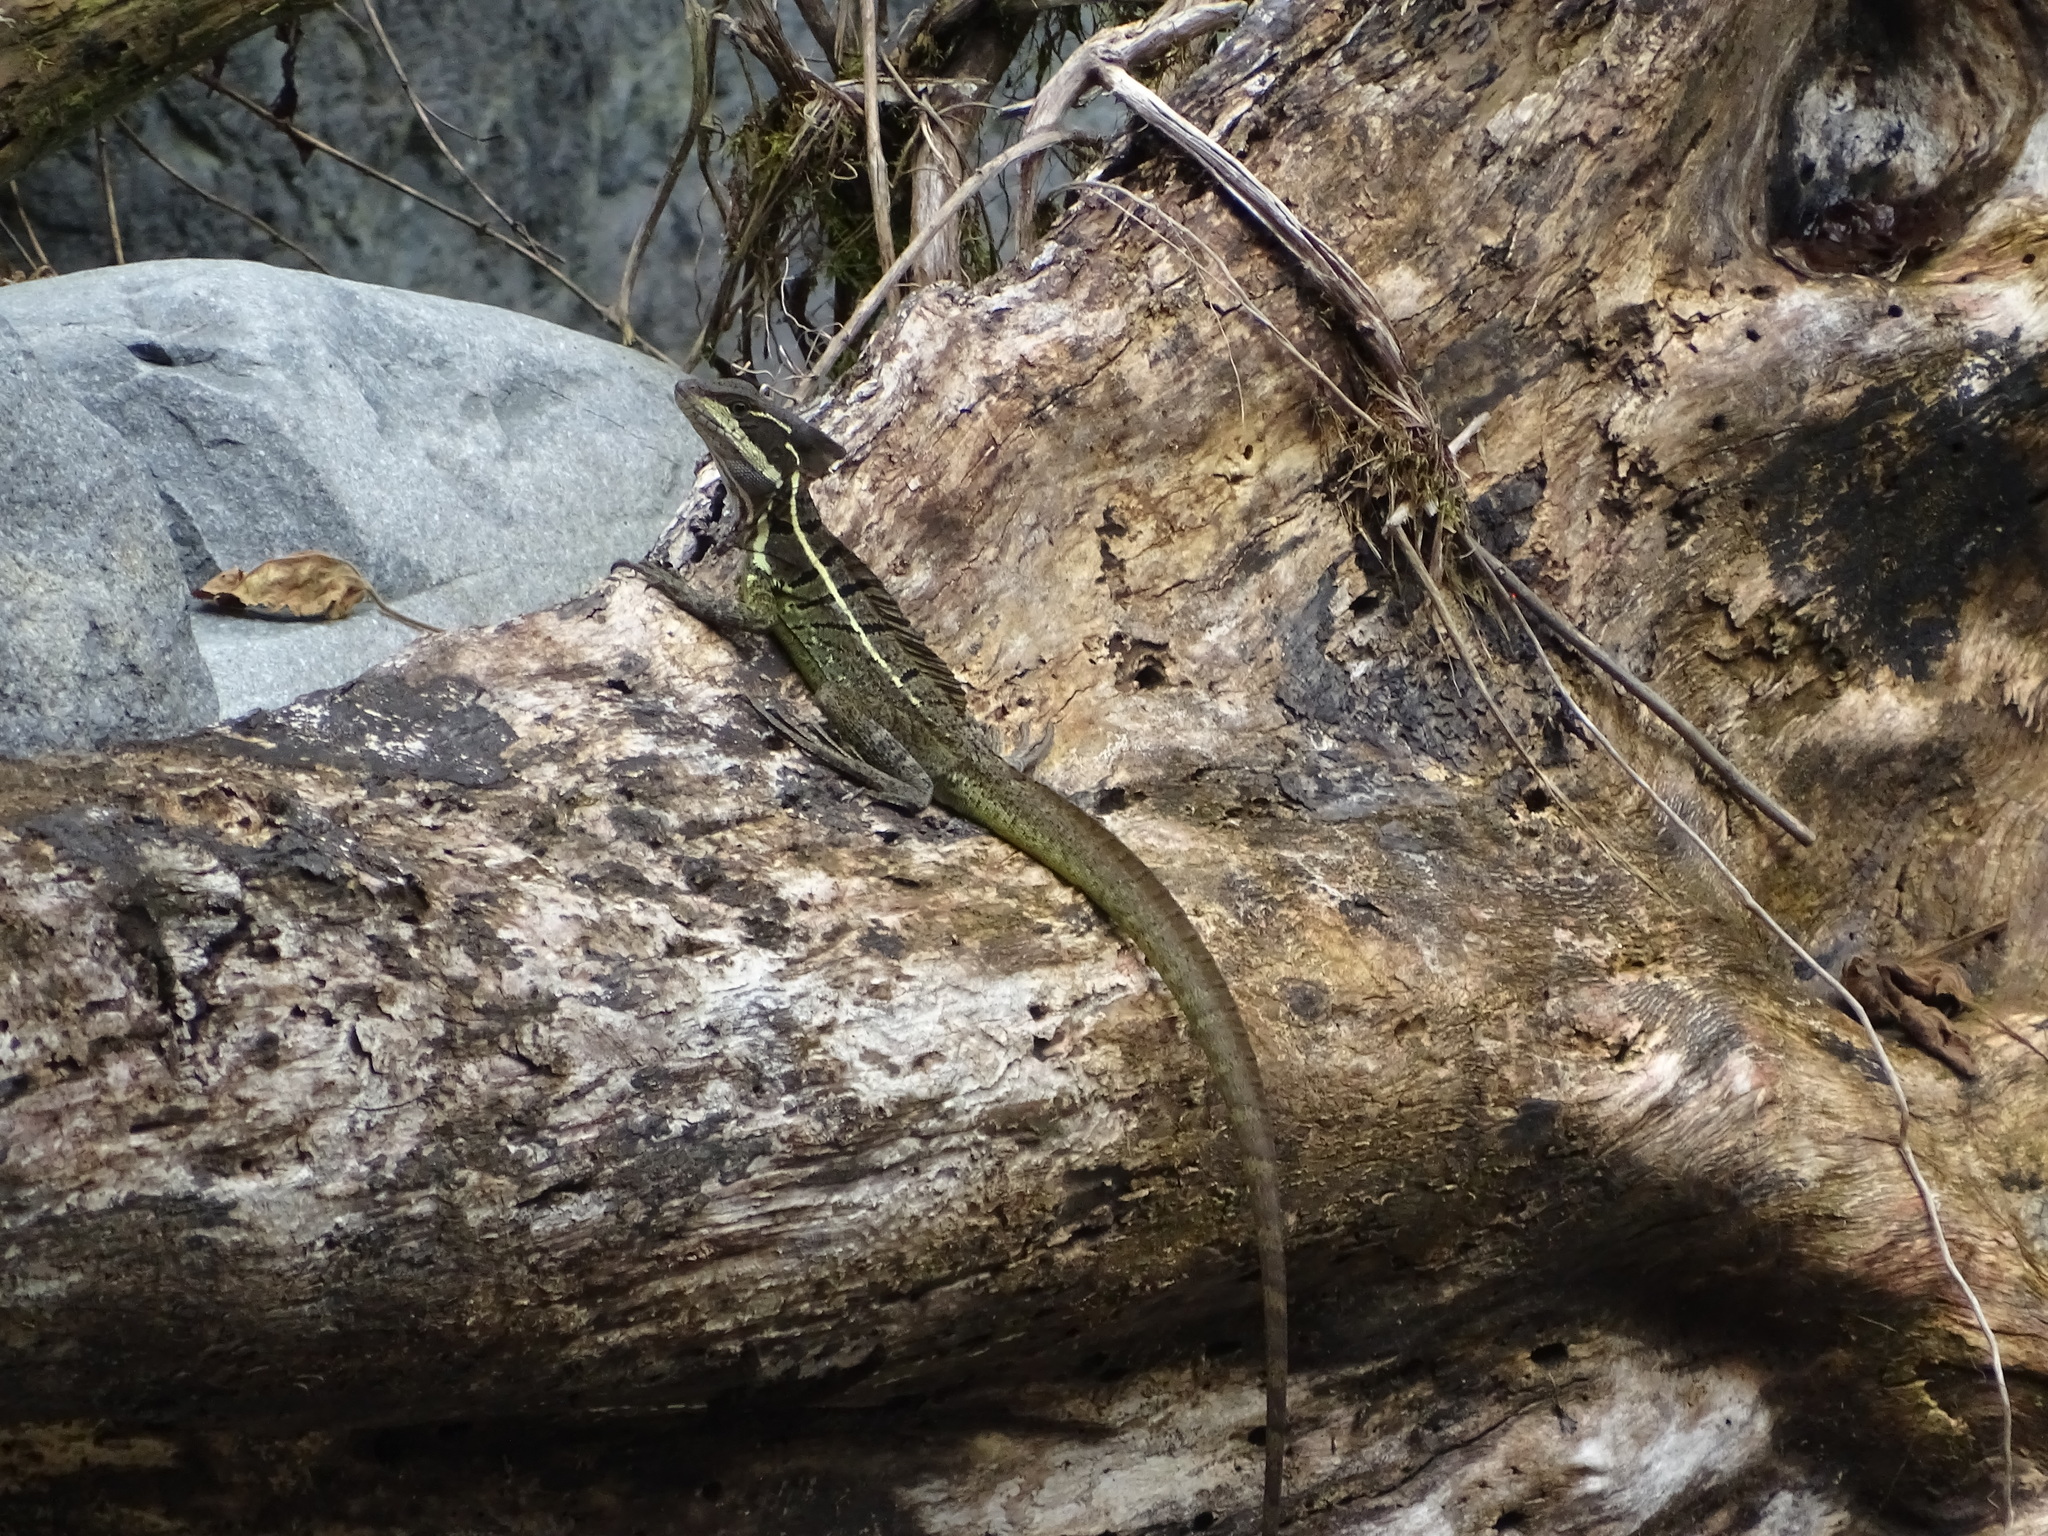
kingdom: Animalia
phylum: Chordata
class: Squamata
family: Corytophanidae
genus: Basiliscus
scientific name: Basiliscus basiliscus
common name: Common basilisk
